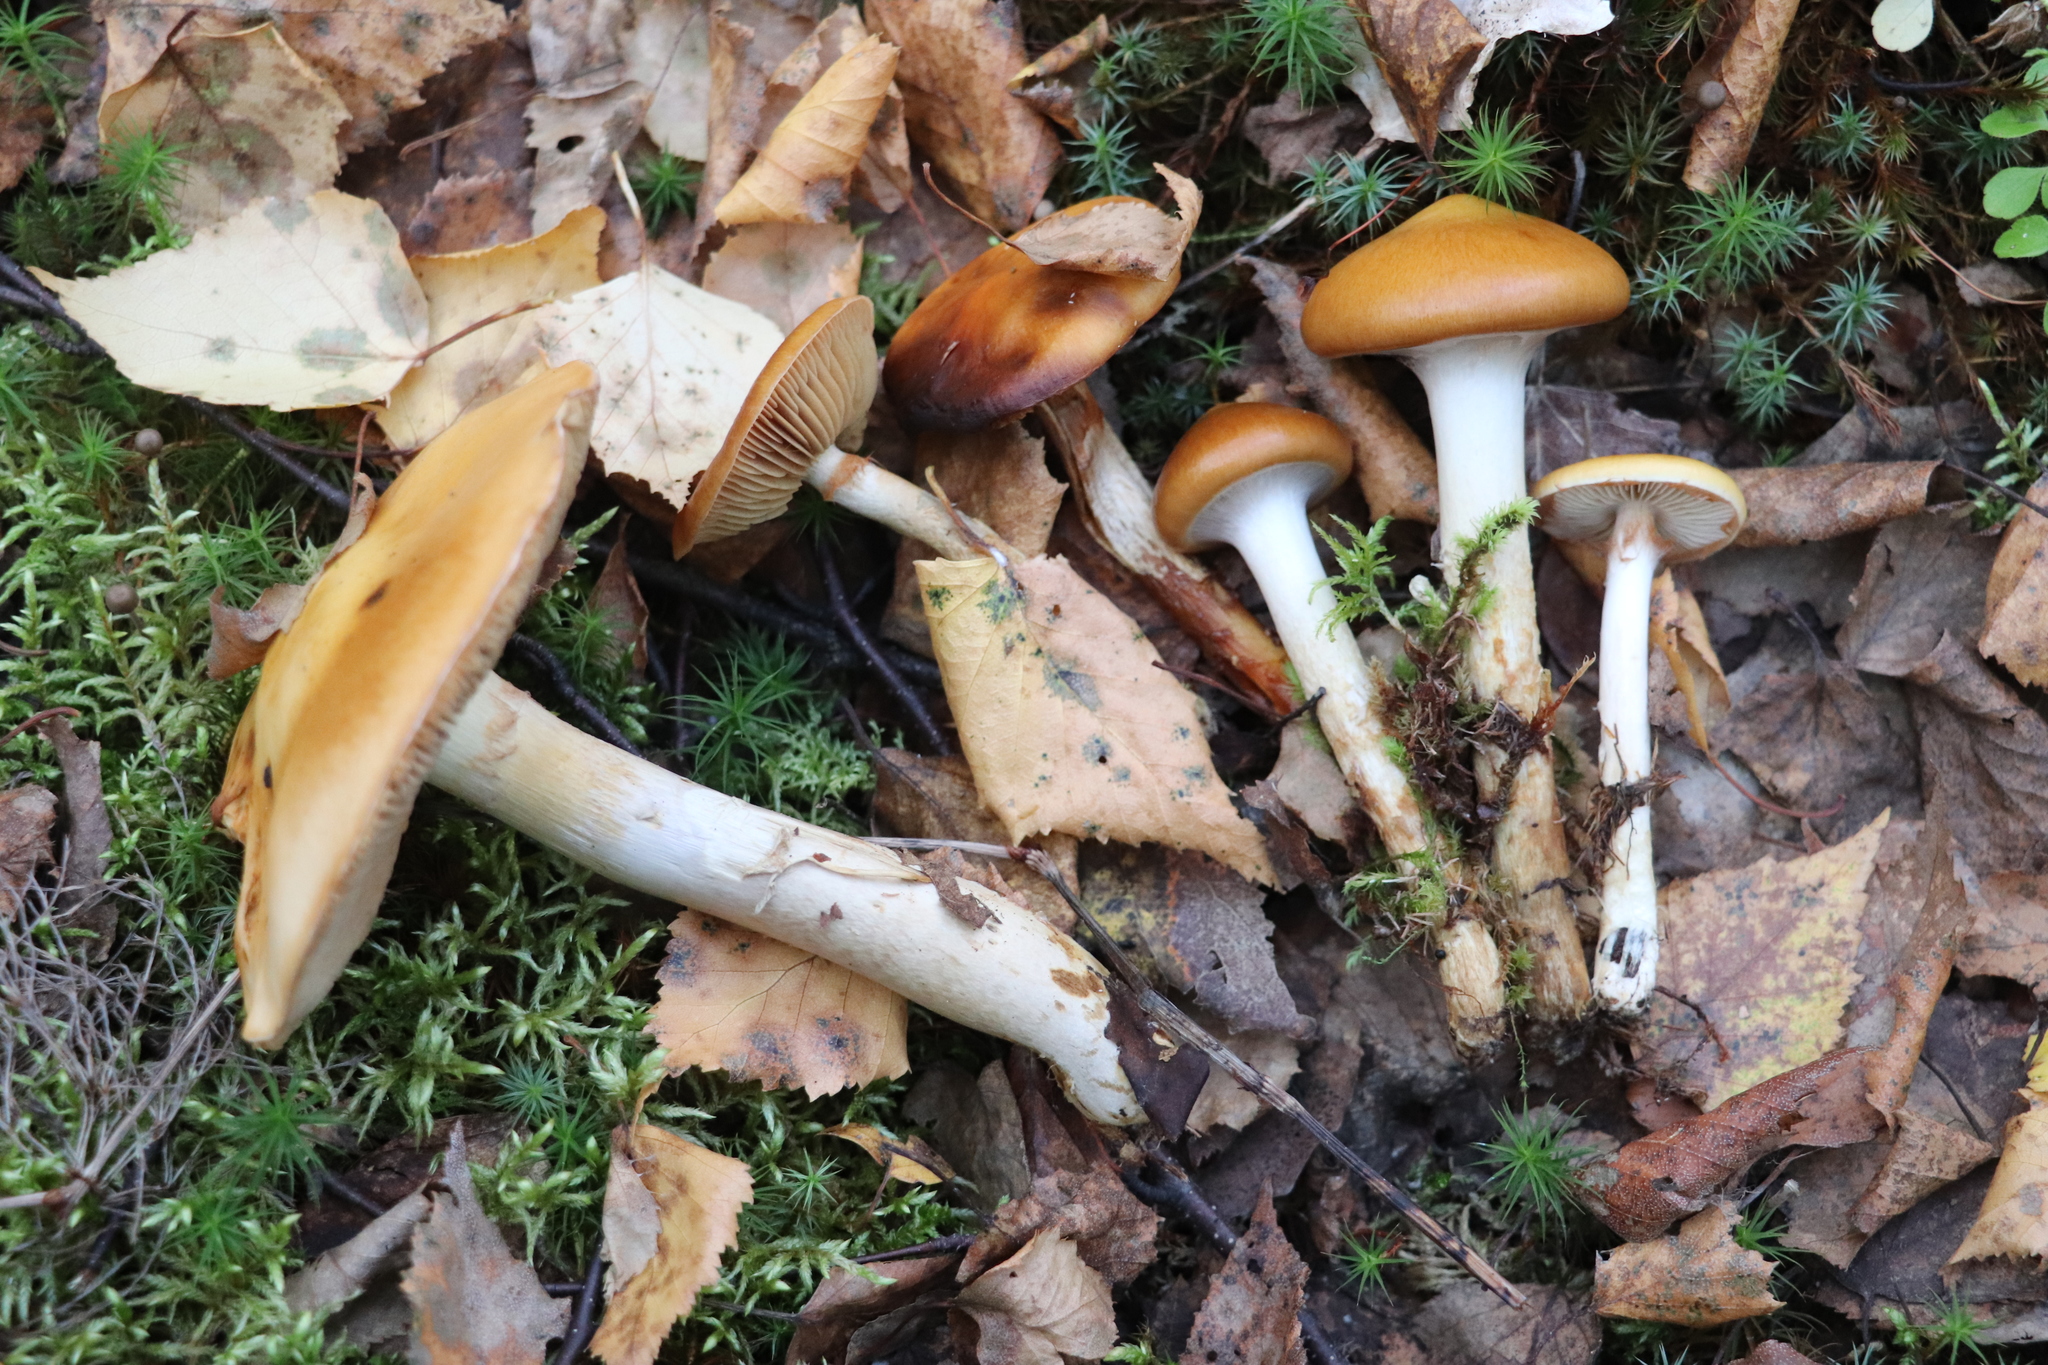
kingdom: Fungi
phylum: Basidiomycota
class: Agaricomycetes
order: Agaricales
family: Cortinariaceae
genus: Cortinarius
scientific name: Cortinarius trivialis
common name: Girdled webcap
